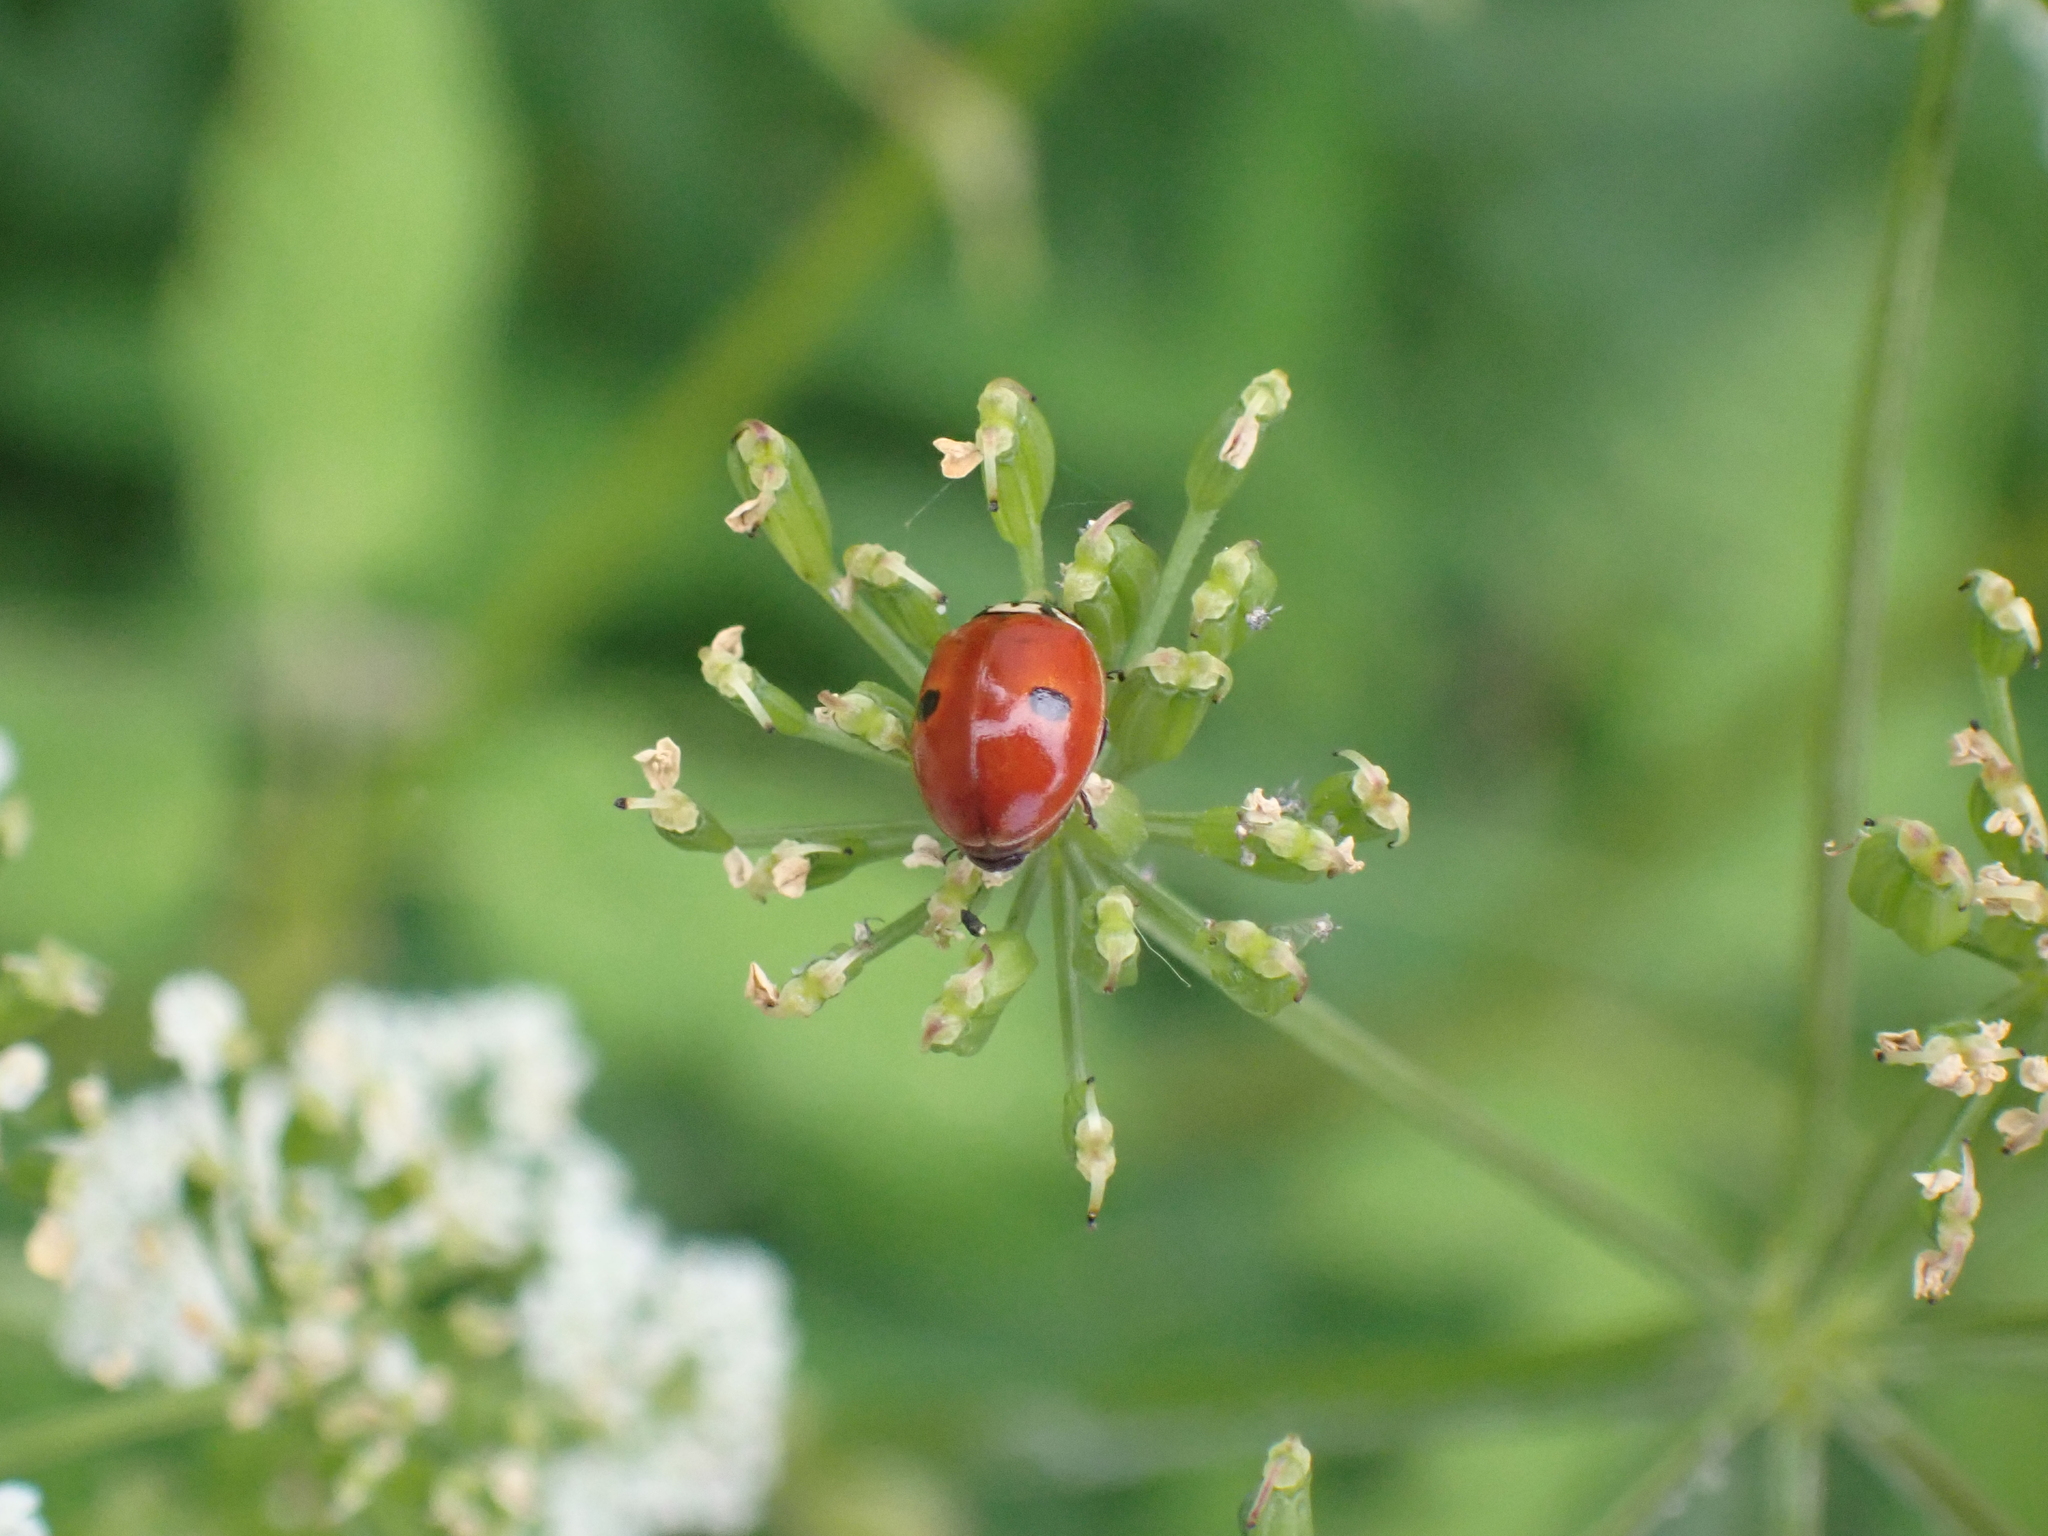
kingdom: Animalia
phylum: Arthropoda
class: Insecta
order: Coleoptera
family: Coccinellidae
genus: Adalia
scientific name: Adalia bipunctata
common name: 2-spot ladybird
